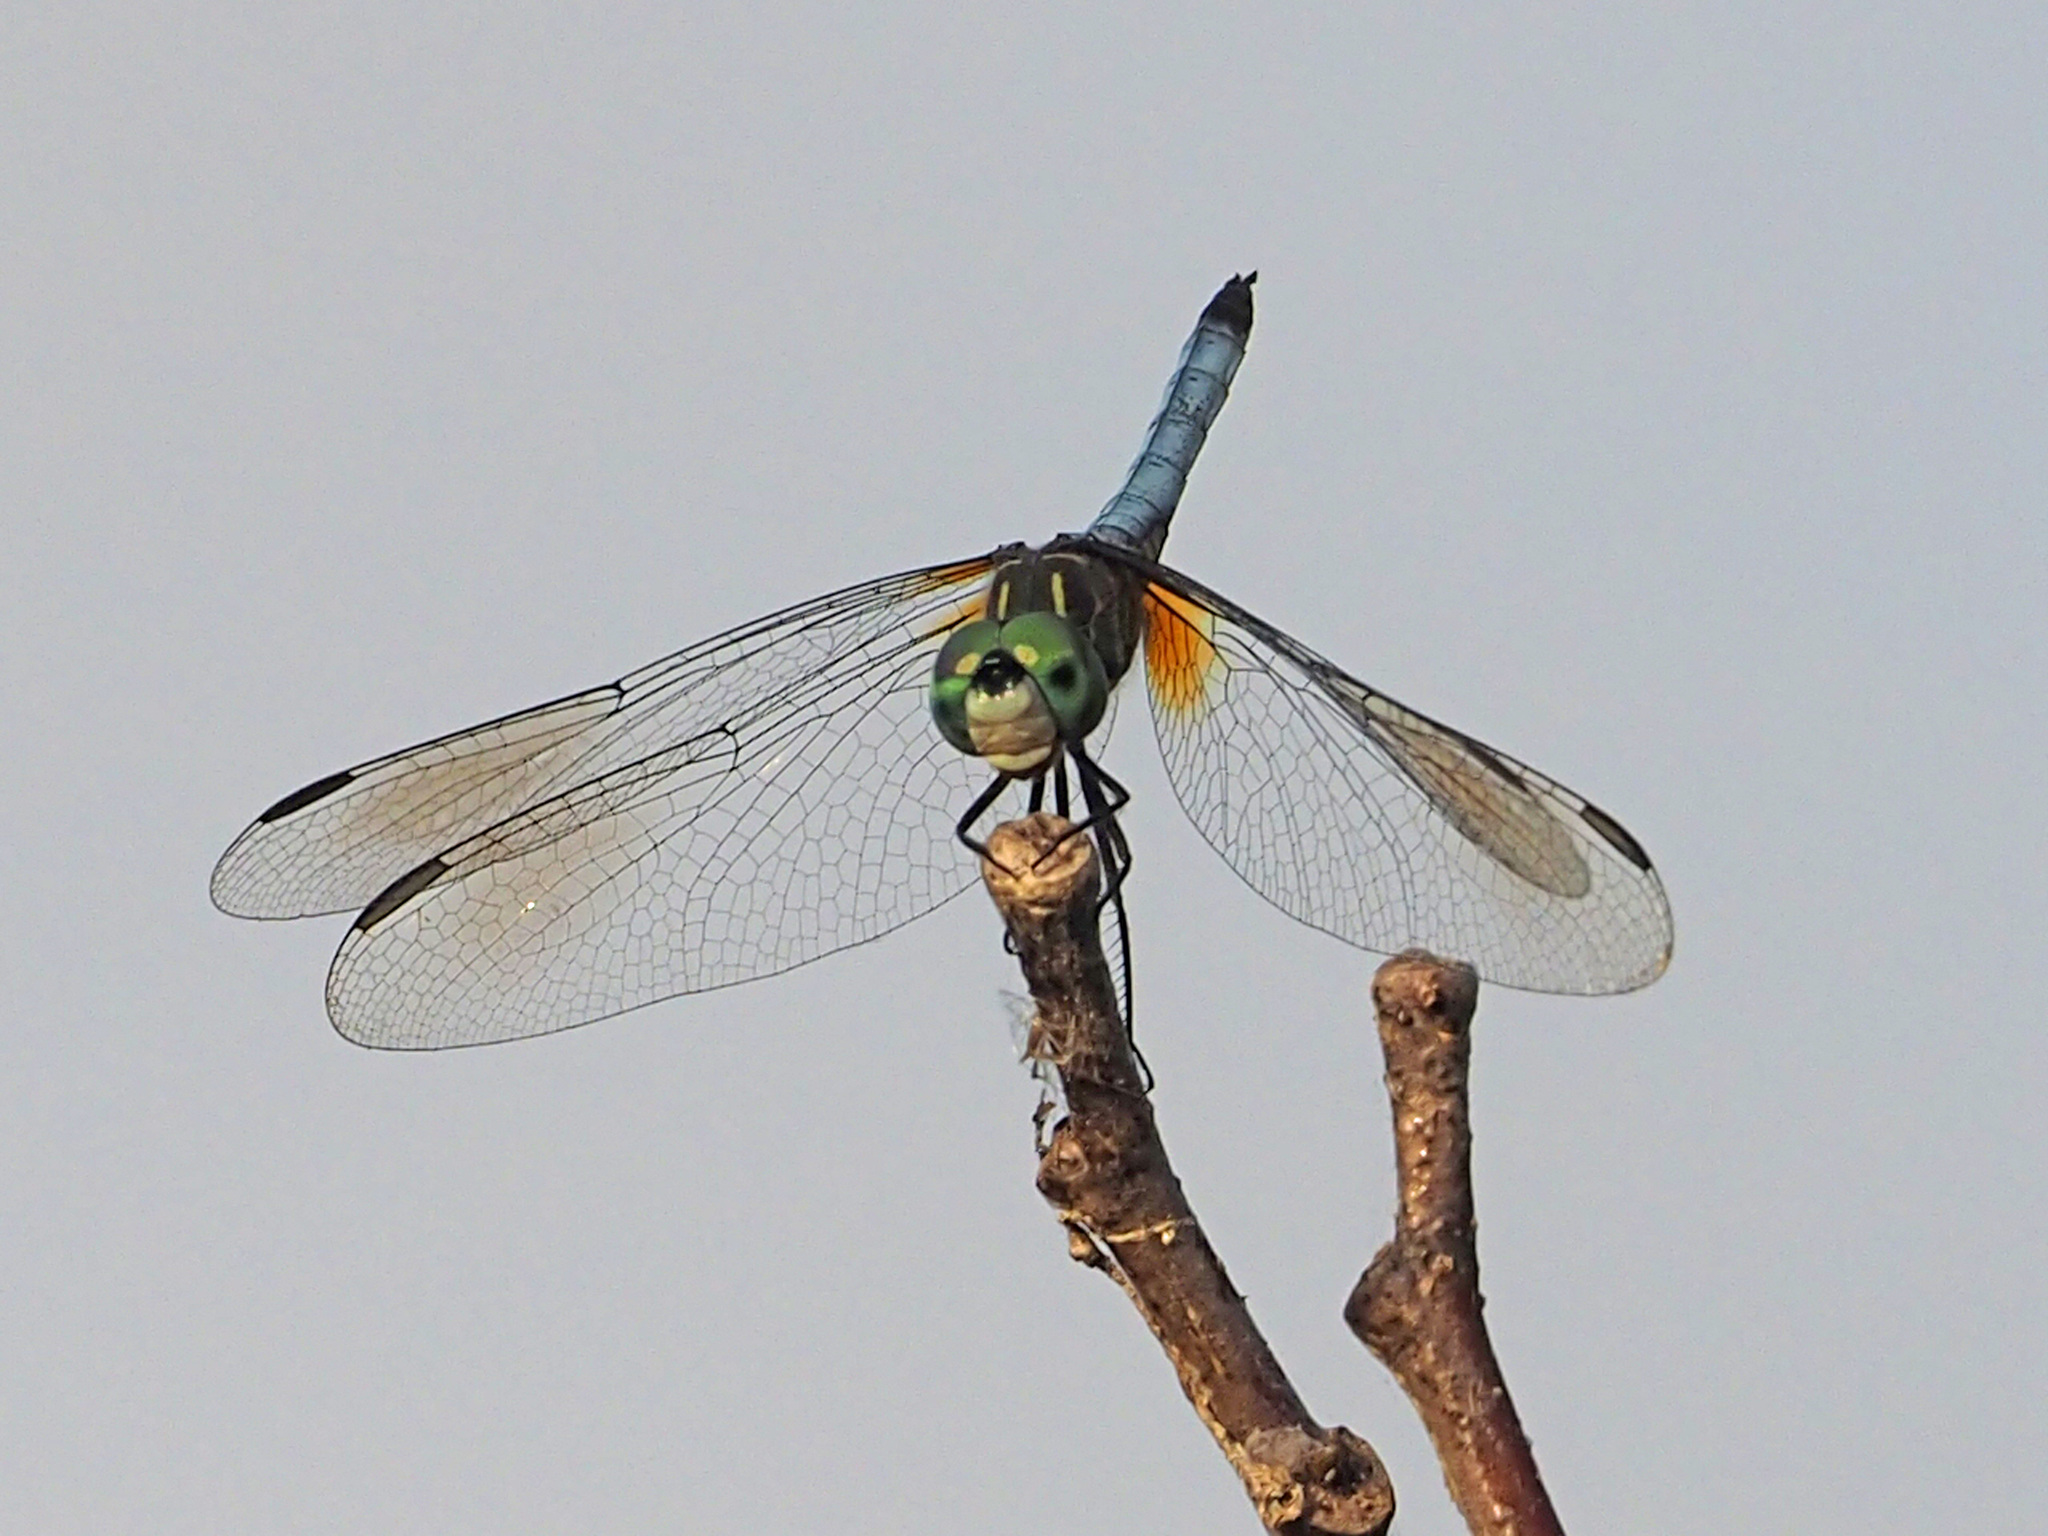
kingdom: Animalia
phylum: Arthropoda
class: Insecta
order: Odonata
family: Libellulidae
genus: Pachydiplax
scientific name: Pachydiplax longipennis
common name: Blue dasher
